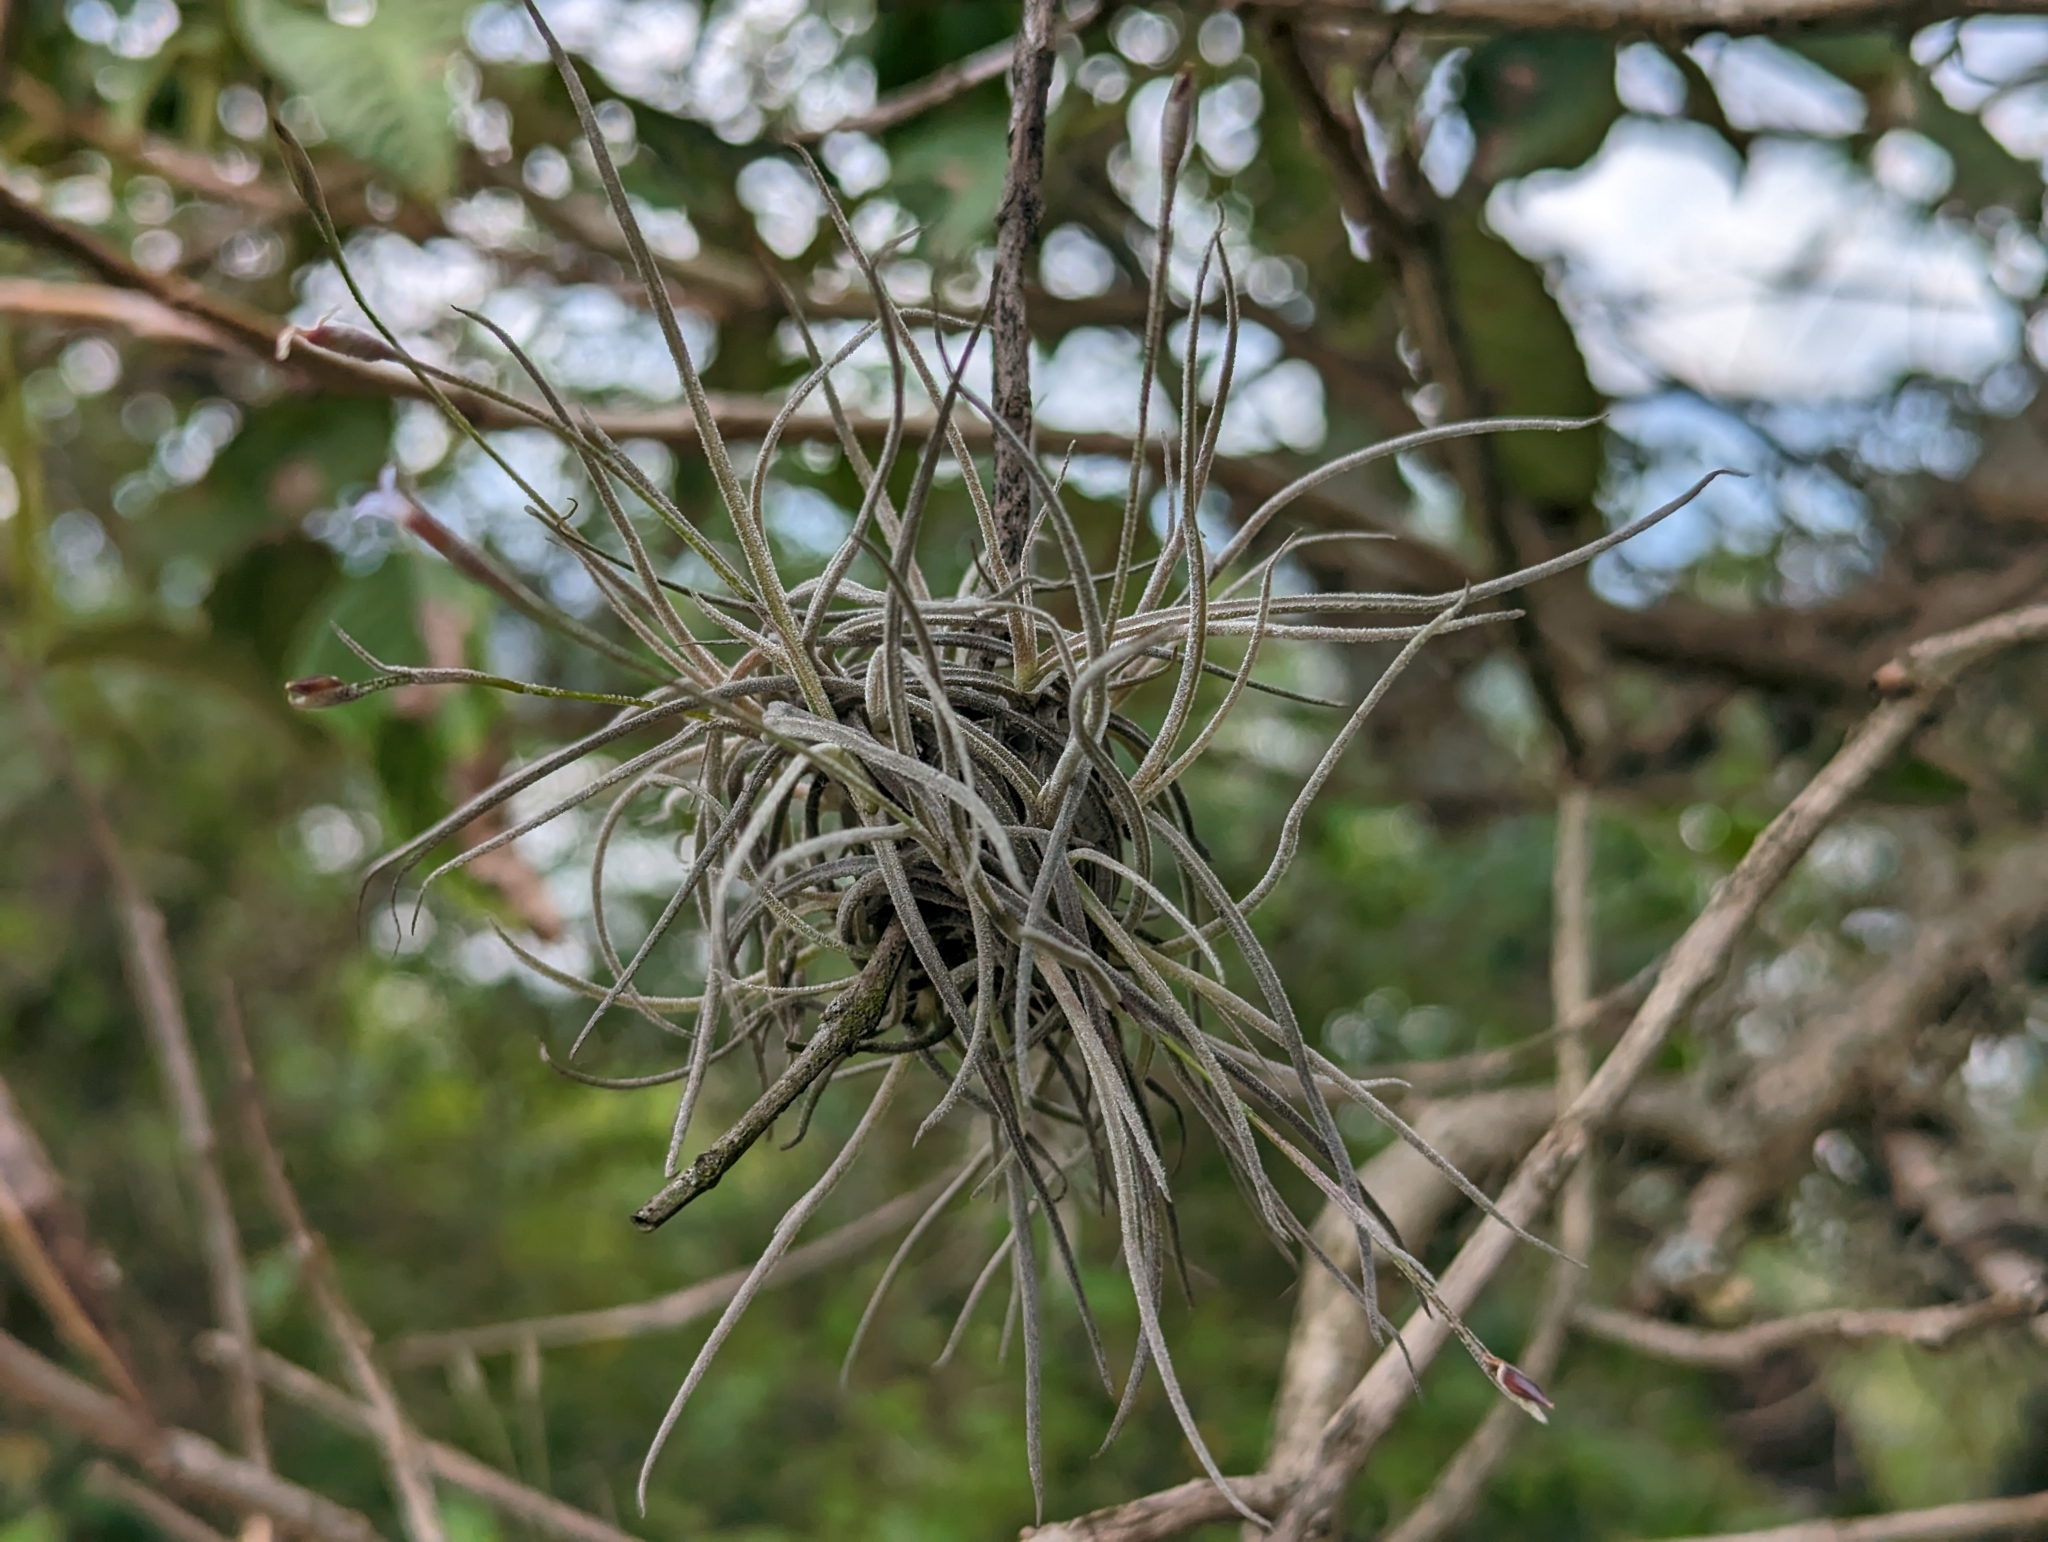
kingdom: Plantae
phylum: Tracheophyta
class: Liliopsida
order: Poales
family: Bromeliaceae
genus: Tillandsia
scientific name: Tillandsia recurvata
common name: Small ballmoss
